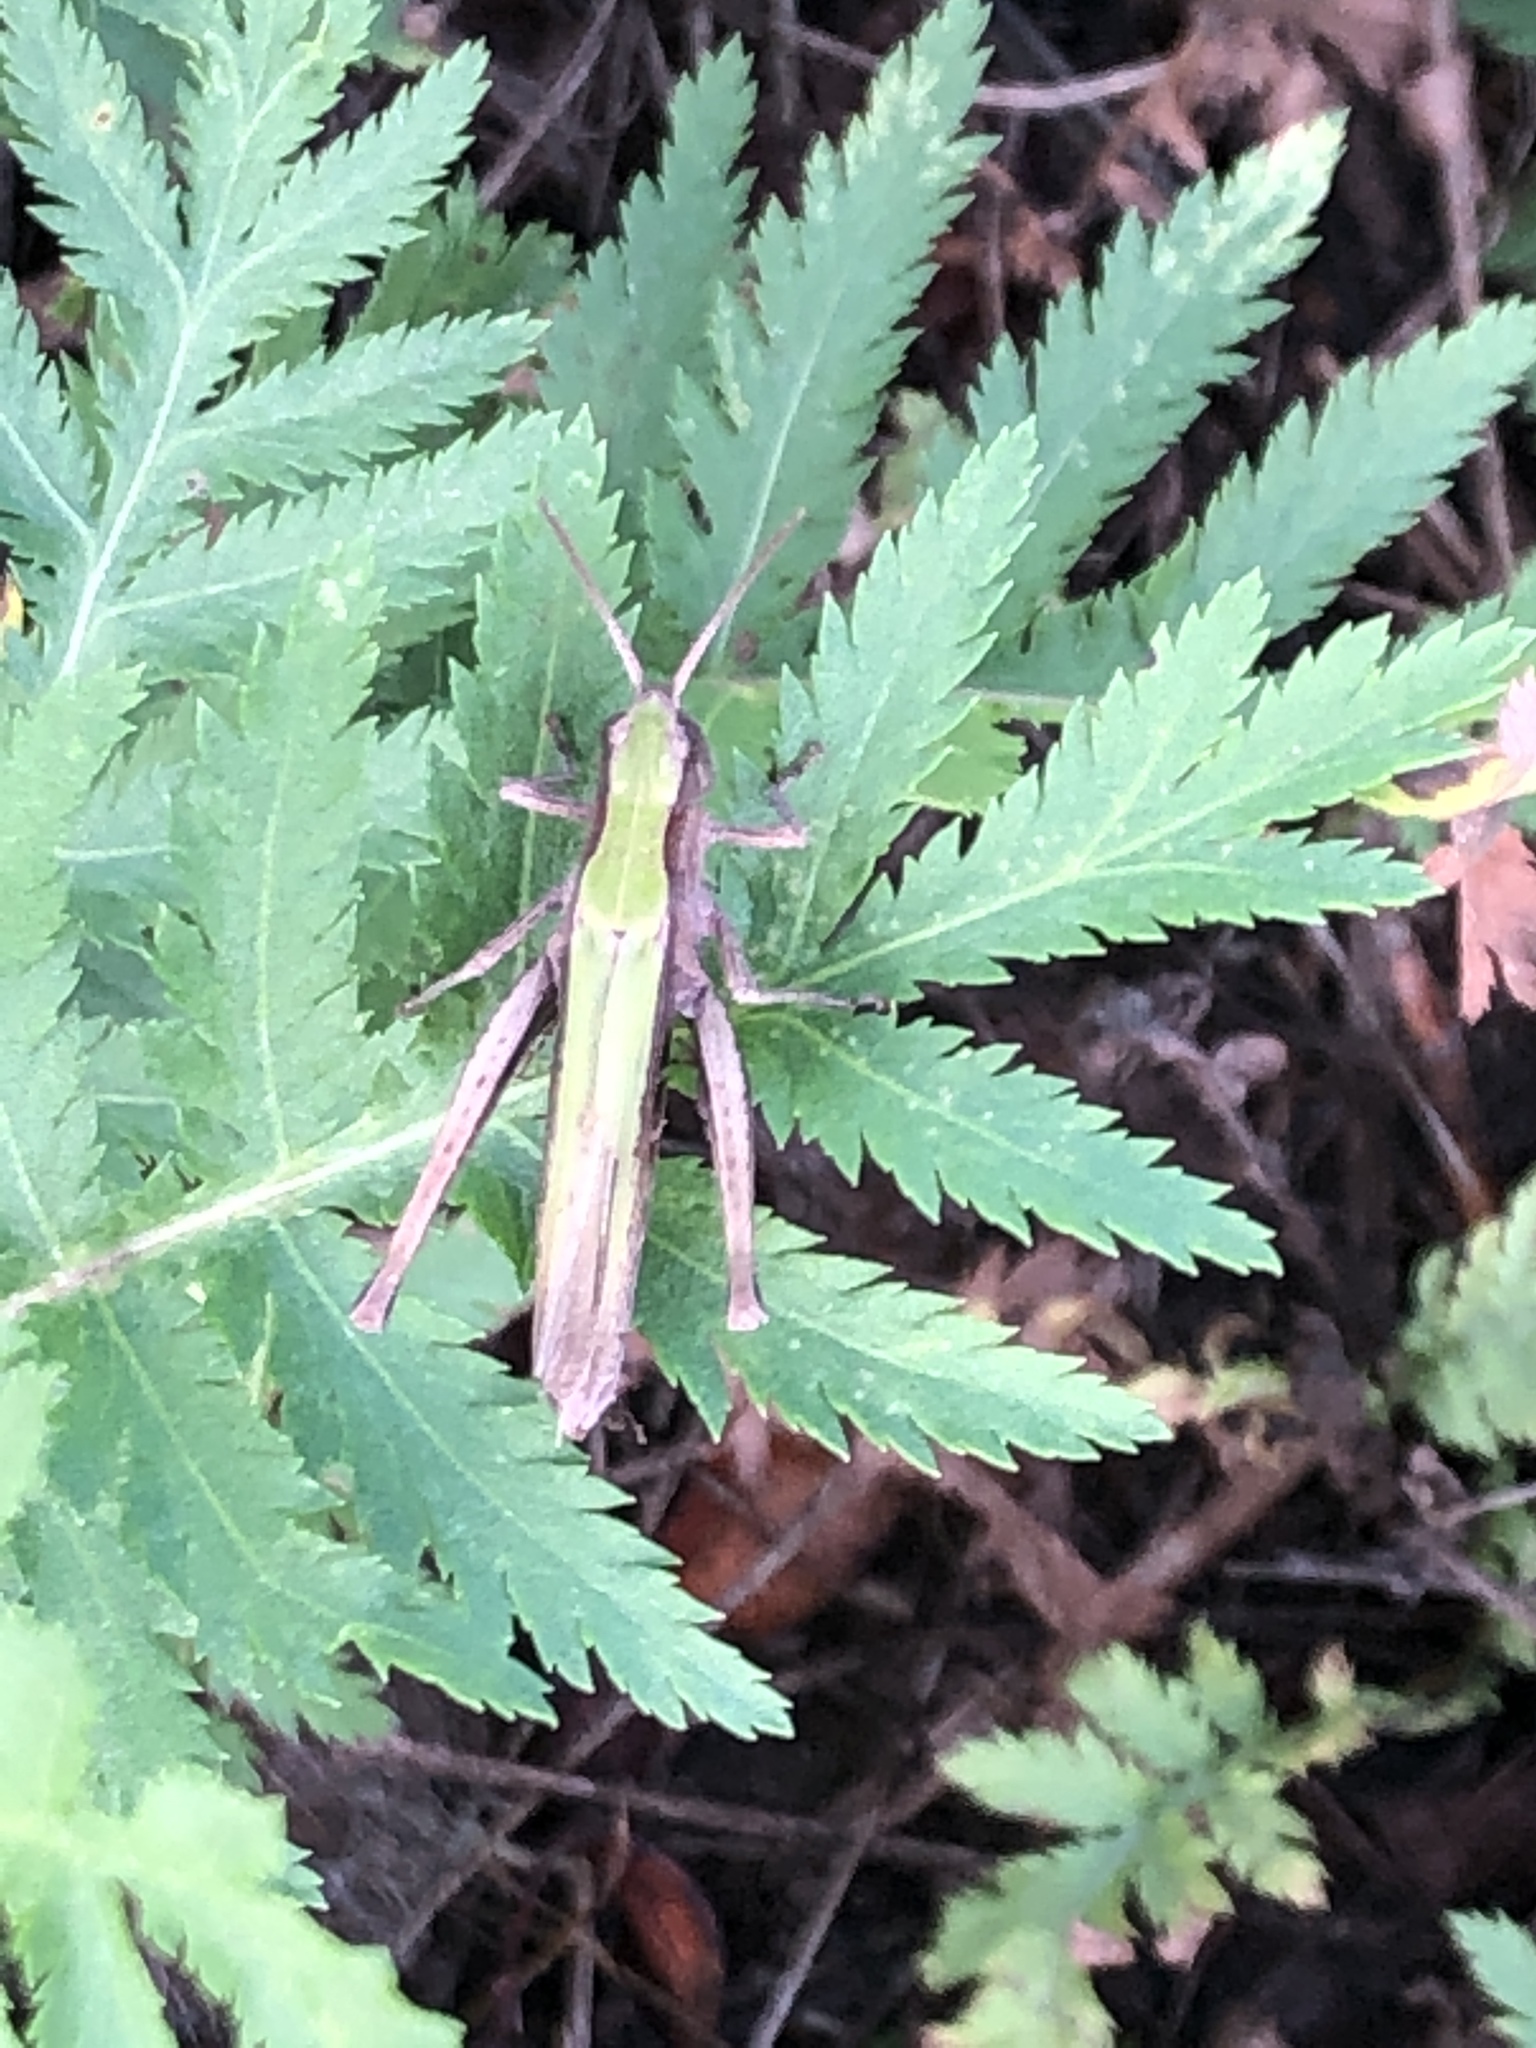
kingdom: Animalia
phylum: Arthropoda
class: Insecta
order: Orthoptera
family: Acrididae
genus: Chorthippus
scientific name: Chorthippus dorsatus
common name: Steppe grasshopper
